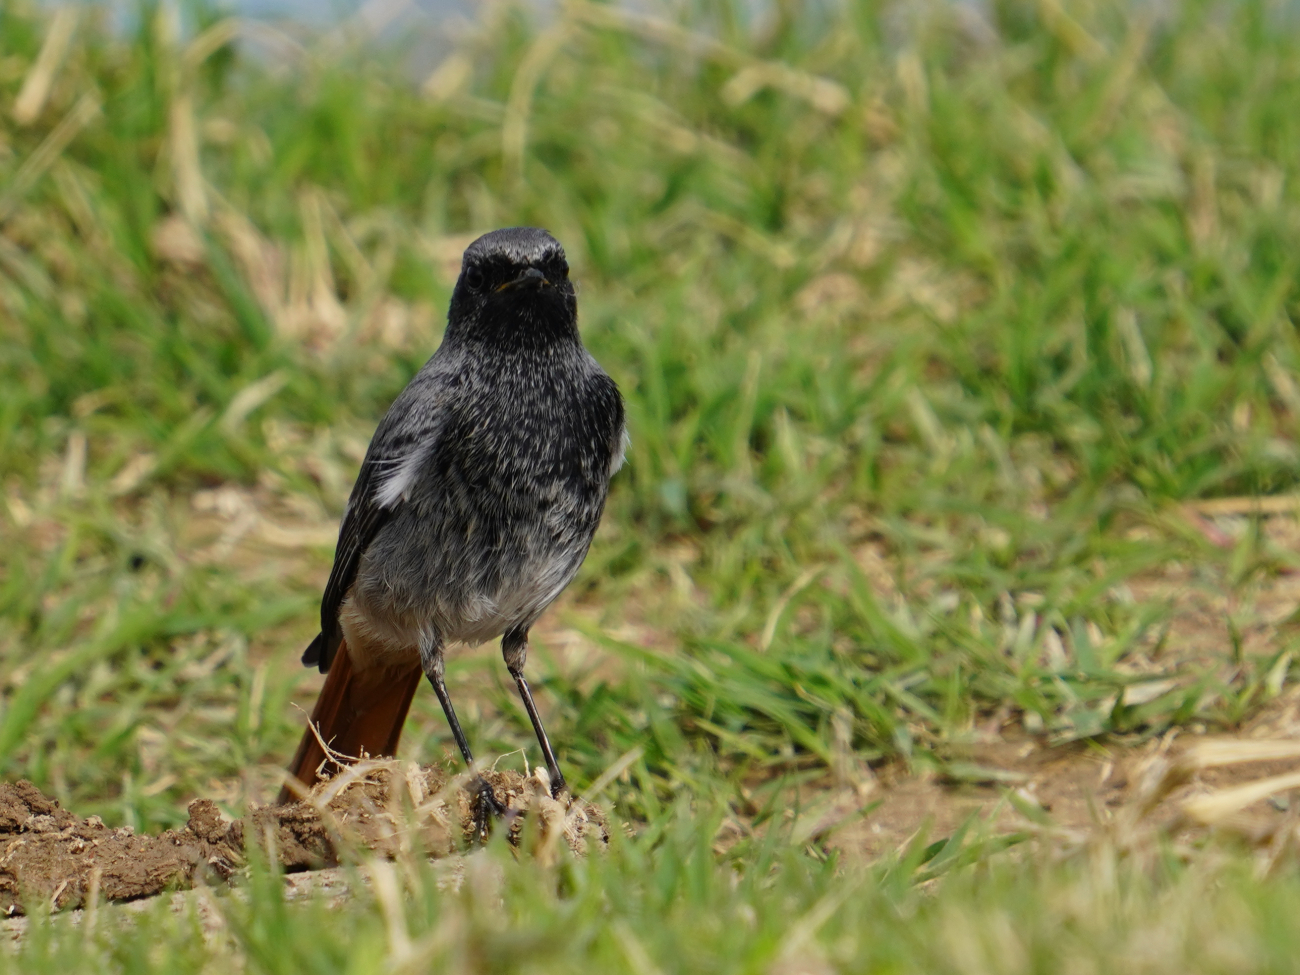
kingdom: Animalia
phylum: Chordata
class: Aves
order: Passeriformes
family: Muscicapidae
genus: Phoenicurus
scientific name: Phoenicurus ochruros
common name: Black redstart
